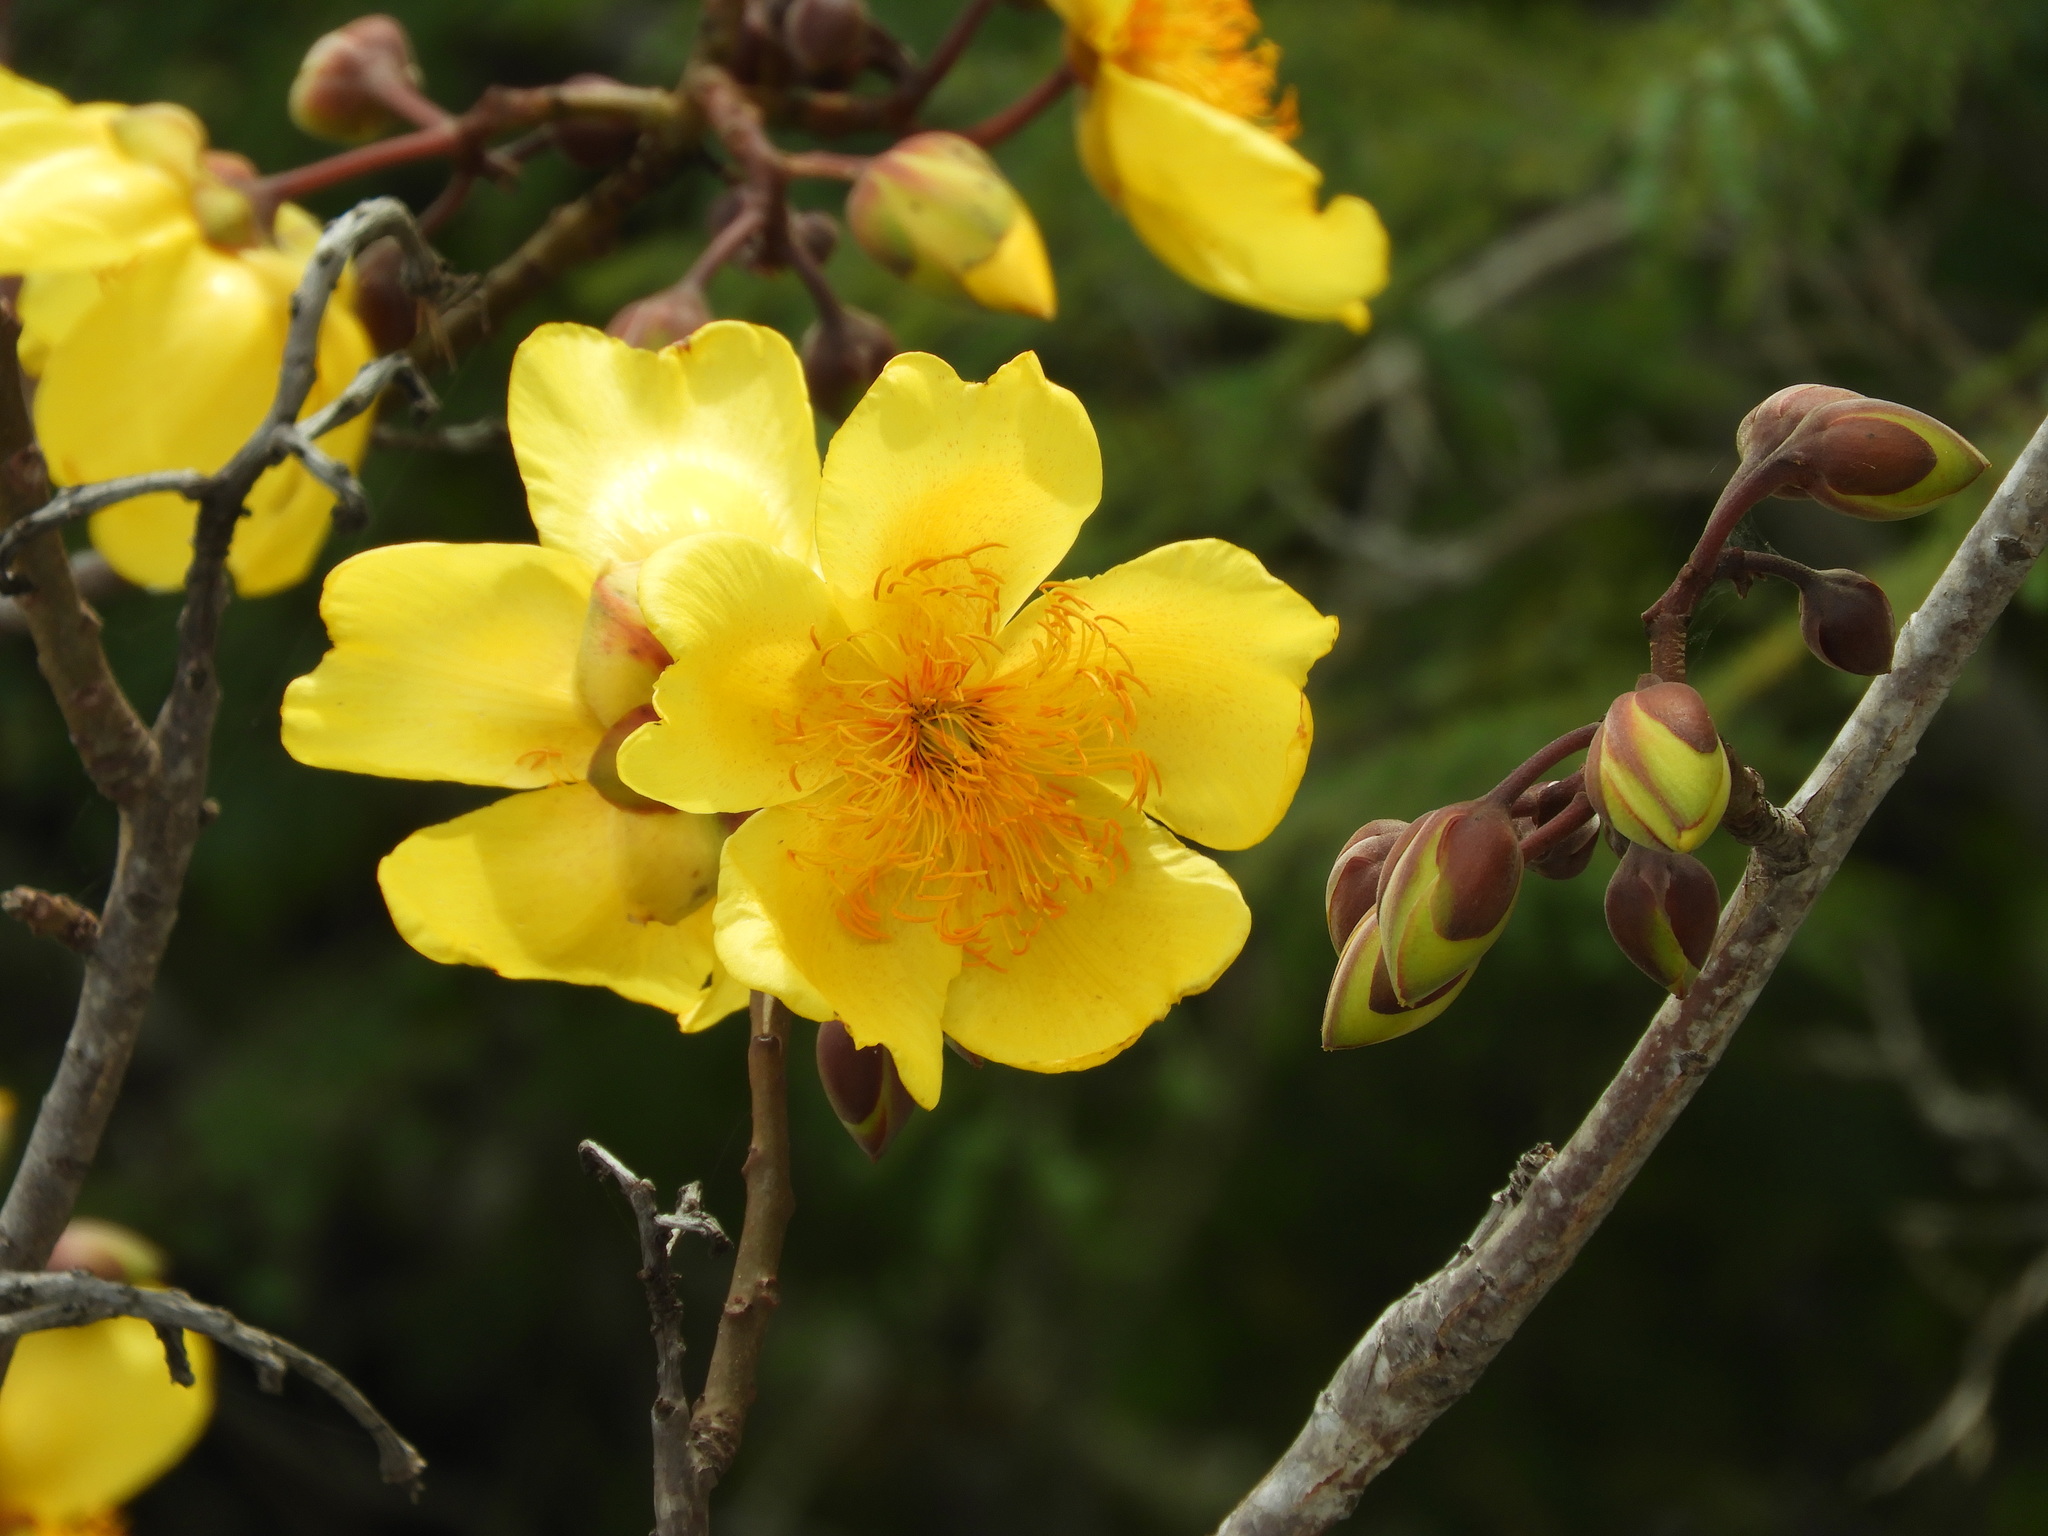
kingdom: Plantae
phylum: Tracheophyta
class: Magnoliopsida
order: Malvales
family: Cochlospermaceae
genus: Cochlospermum
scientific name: Cochlospermum vitifolium
